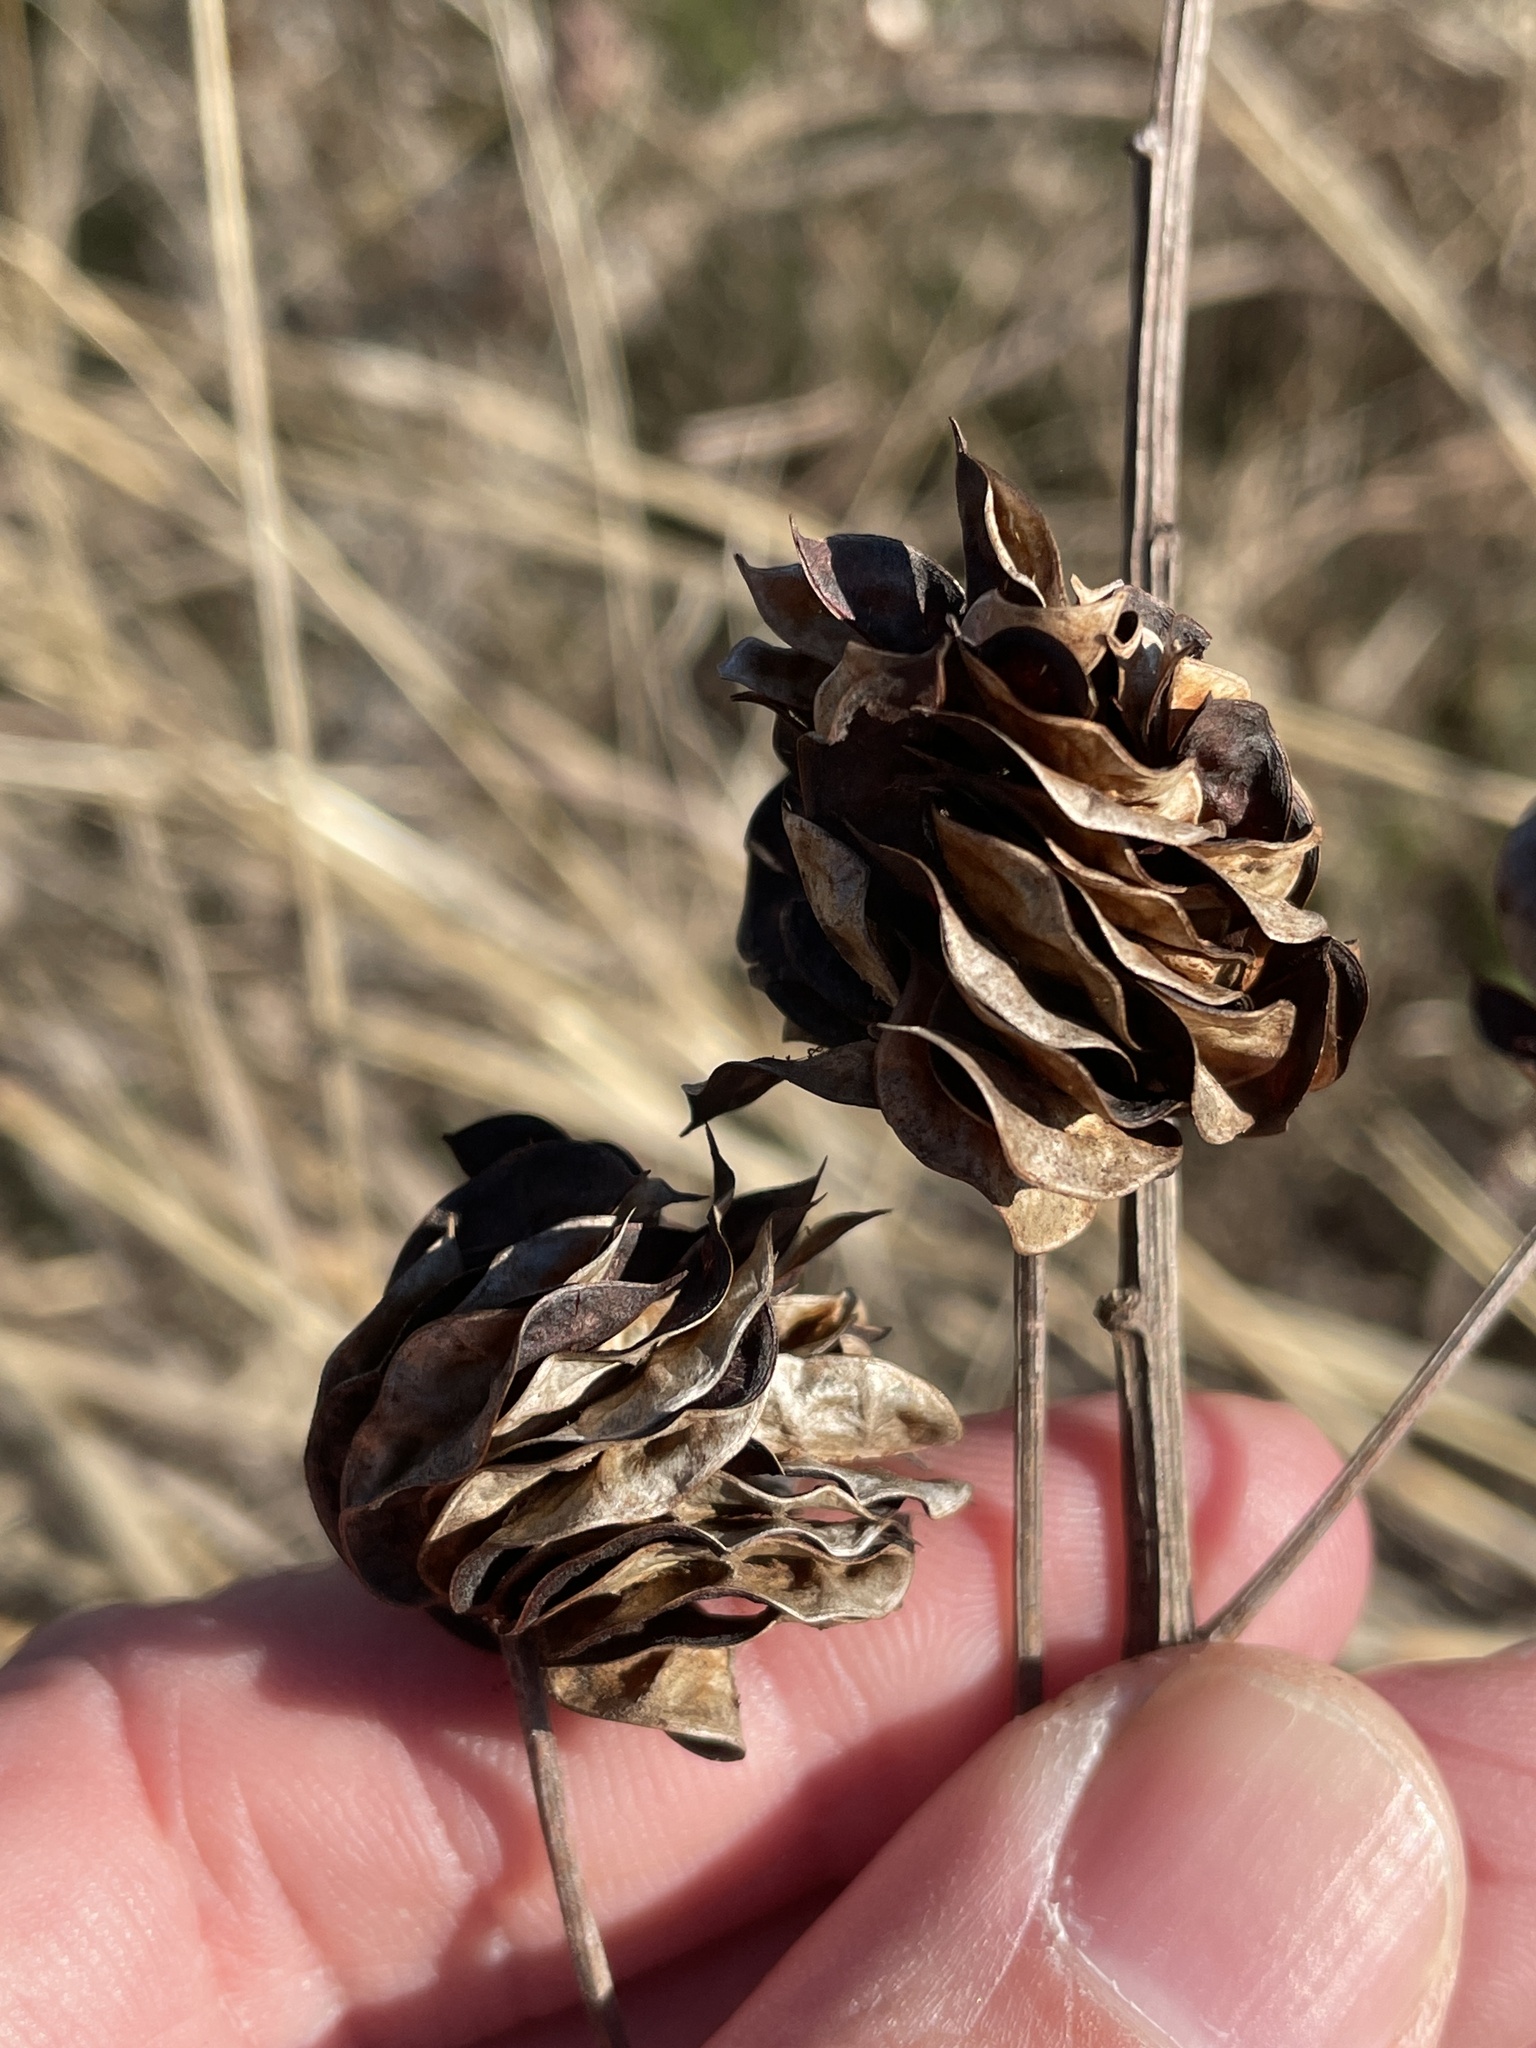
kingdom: Plantae
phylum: Tracheophyta
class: Magnoliopsida
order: Fabales
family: Fabaceae
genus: Desmanthus
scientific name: Desmanthus illinoensis
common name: Illinois bundle-flower
